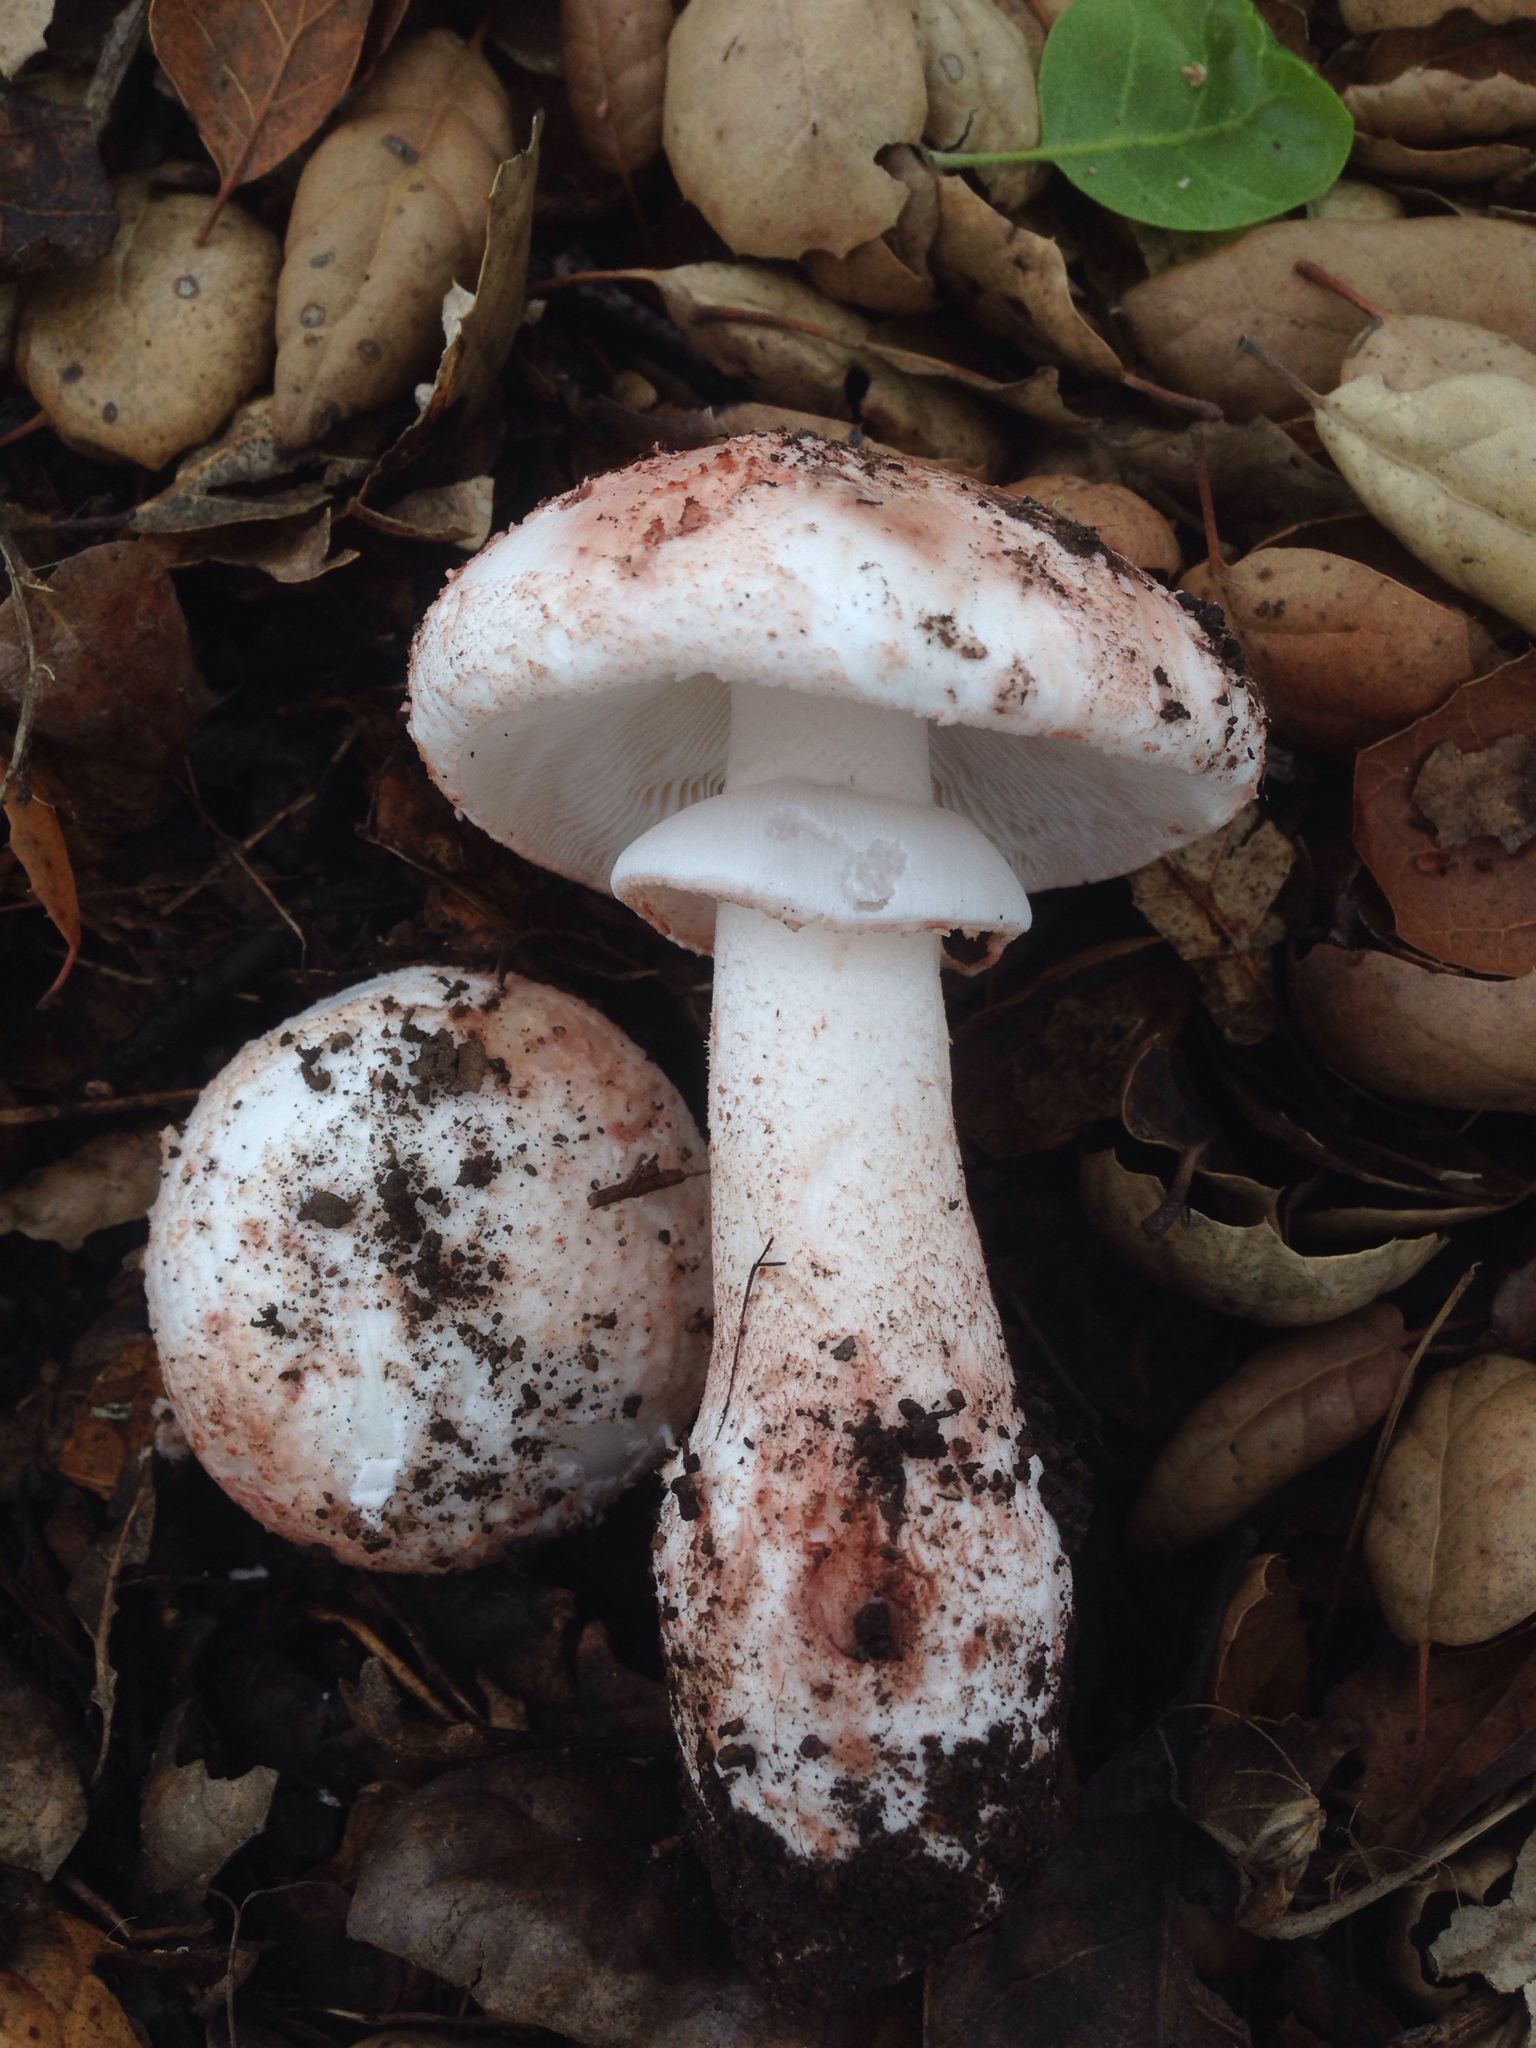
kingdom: Fungi
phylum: Basidiomycota
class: Agaricomycetes
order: Agaricales
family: Amanitaceae
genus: Amanita
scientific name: Amanita novinupta
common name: Blushing bride
